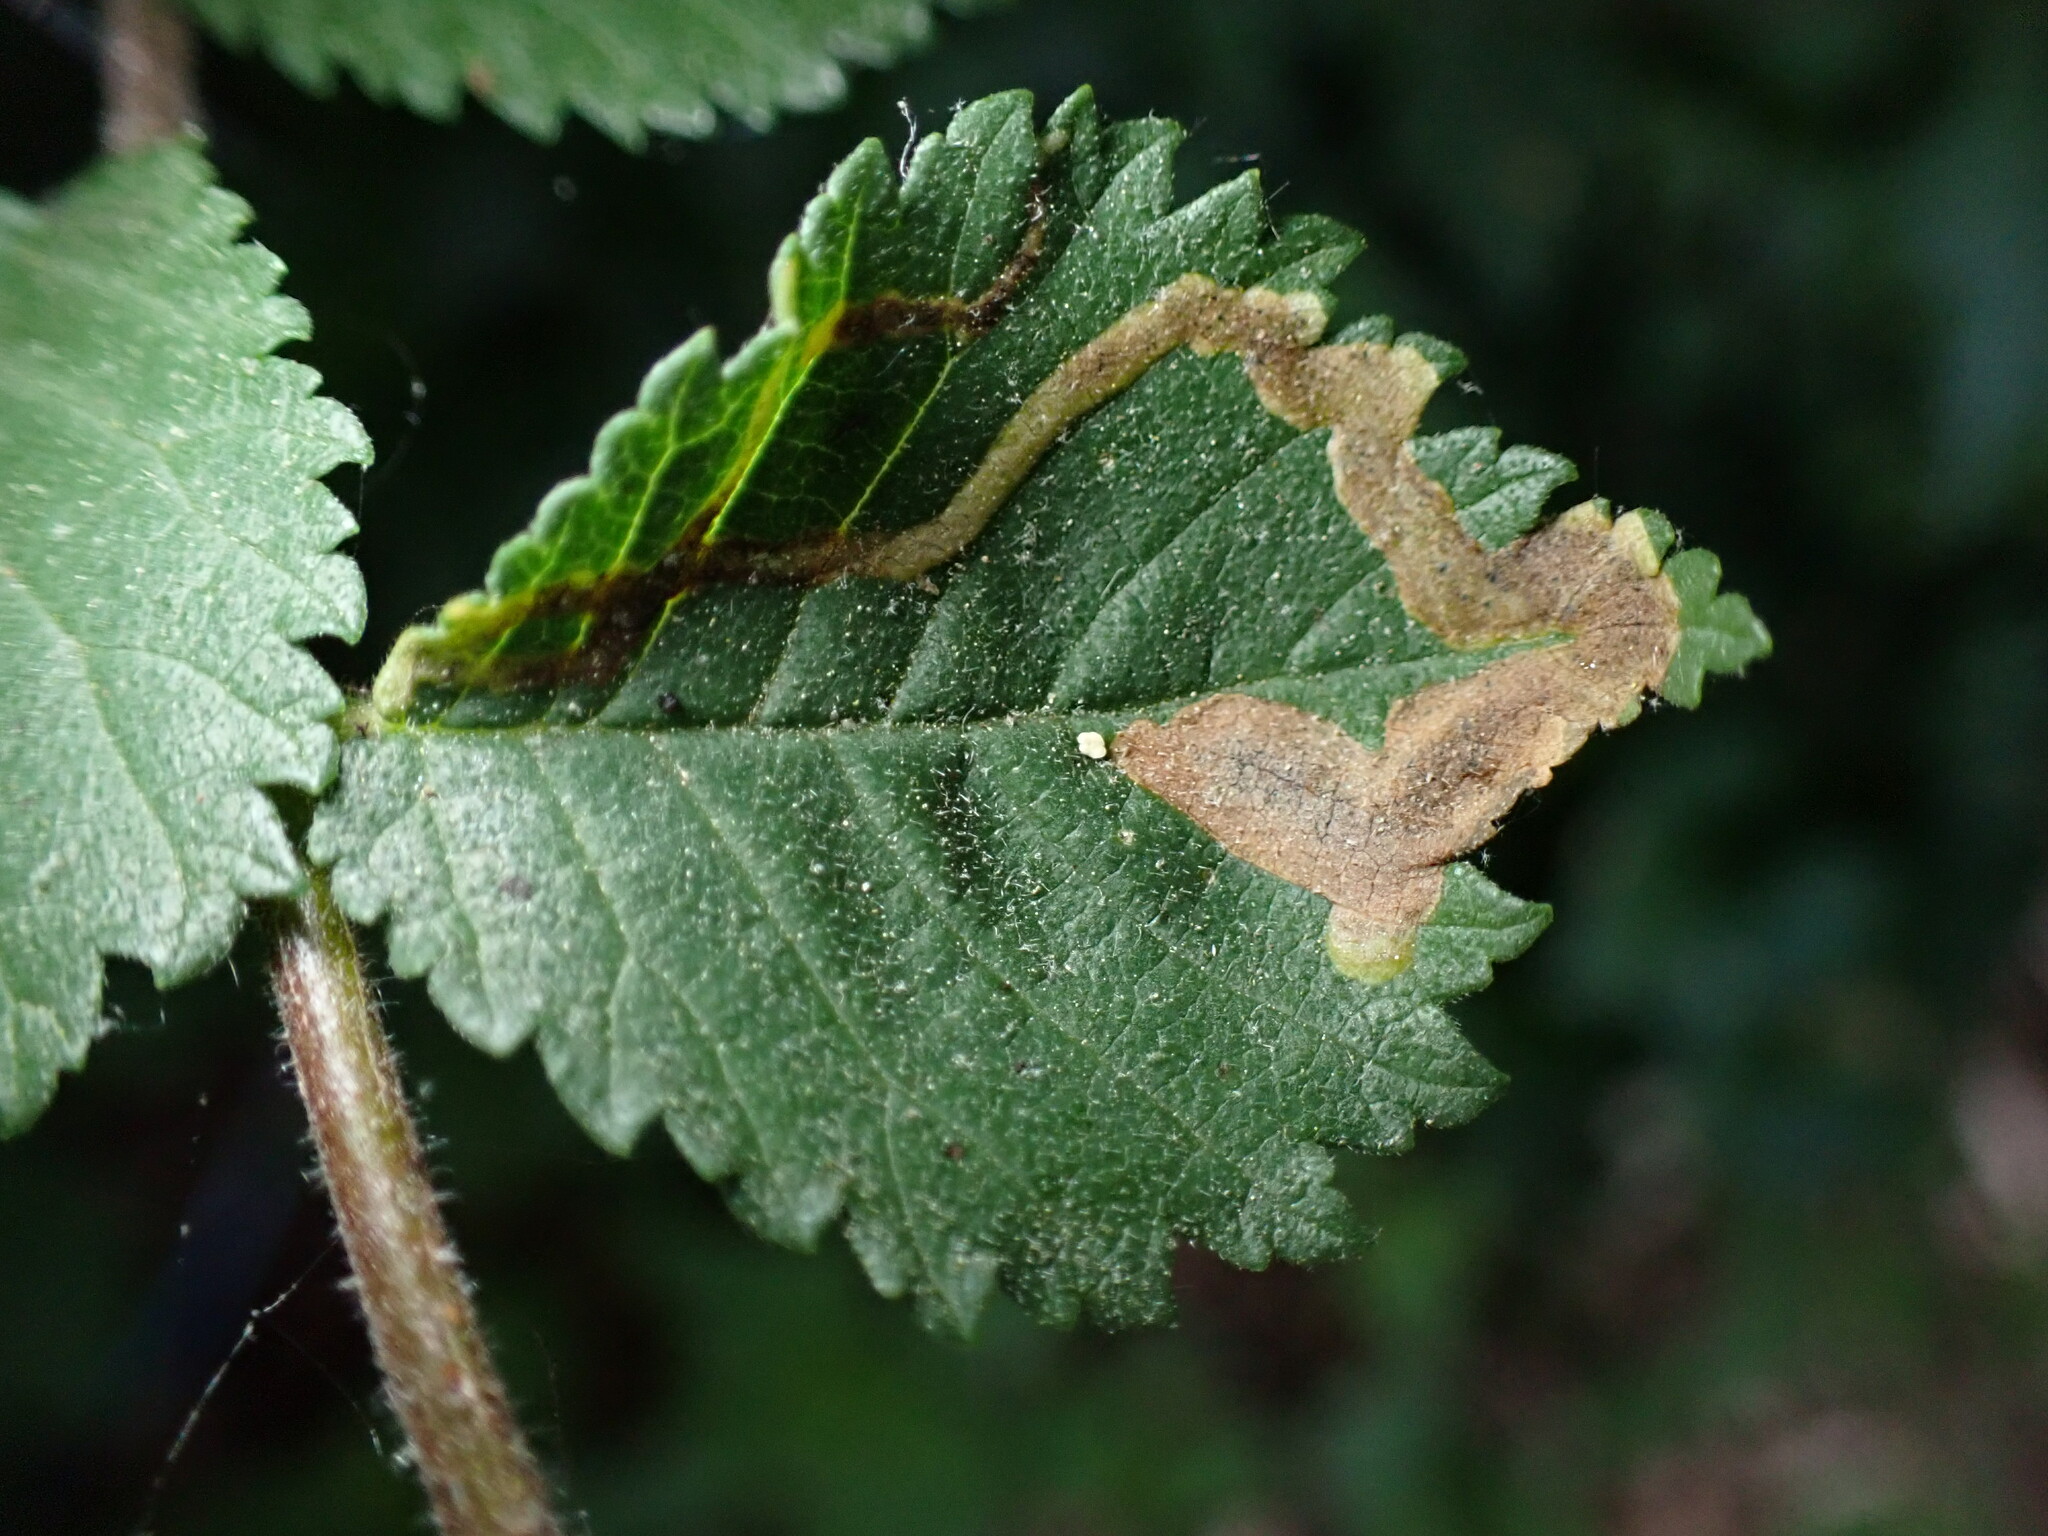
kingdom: Animalia
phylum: Arthropoda
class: Insecta
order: Diptera
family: Agromyzidae
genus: Agromyza
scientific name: Agromyza aristata
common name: Elm agromyzid leafminer
